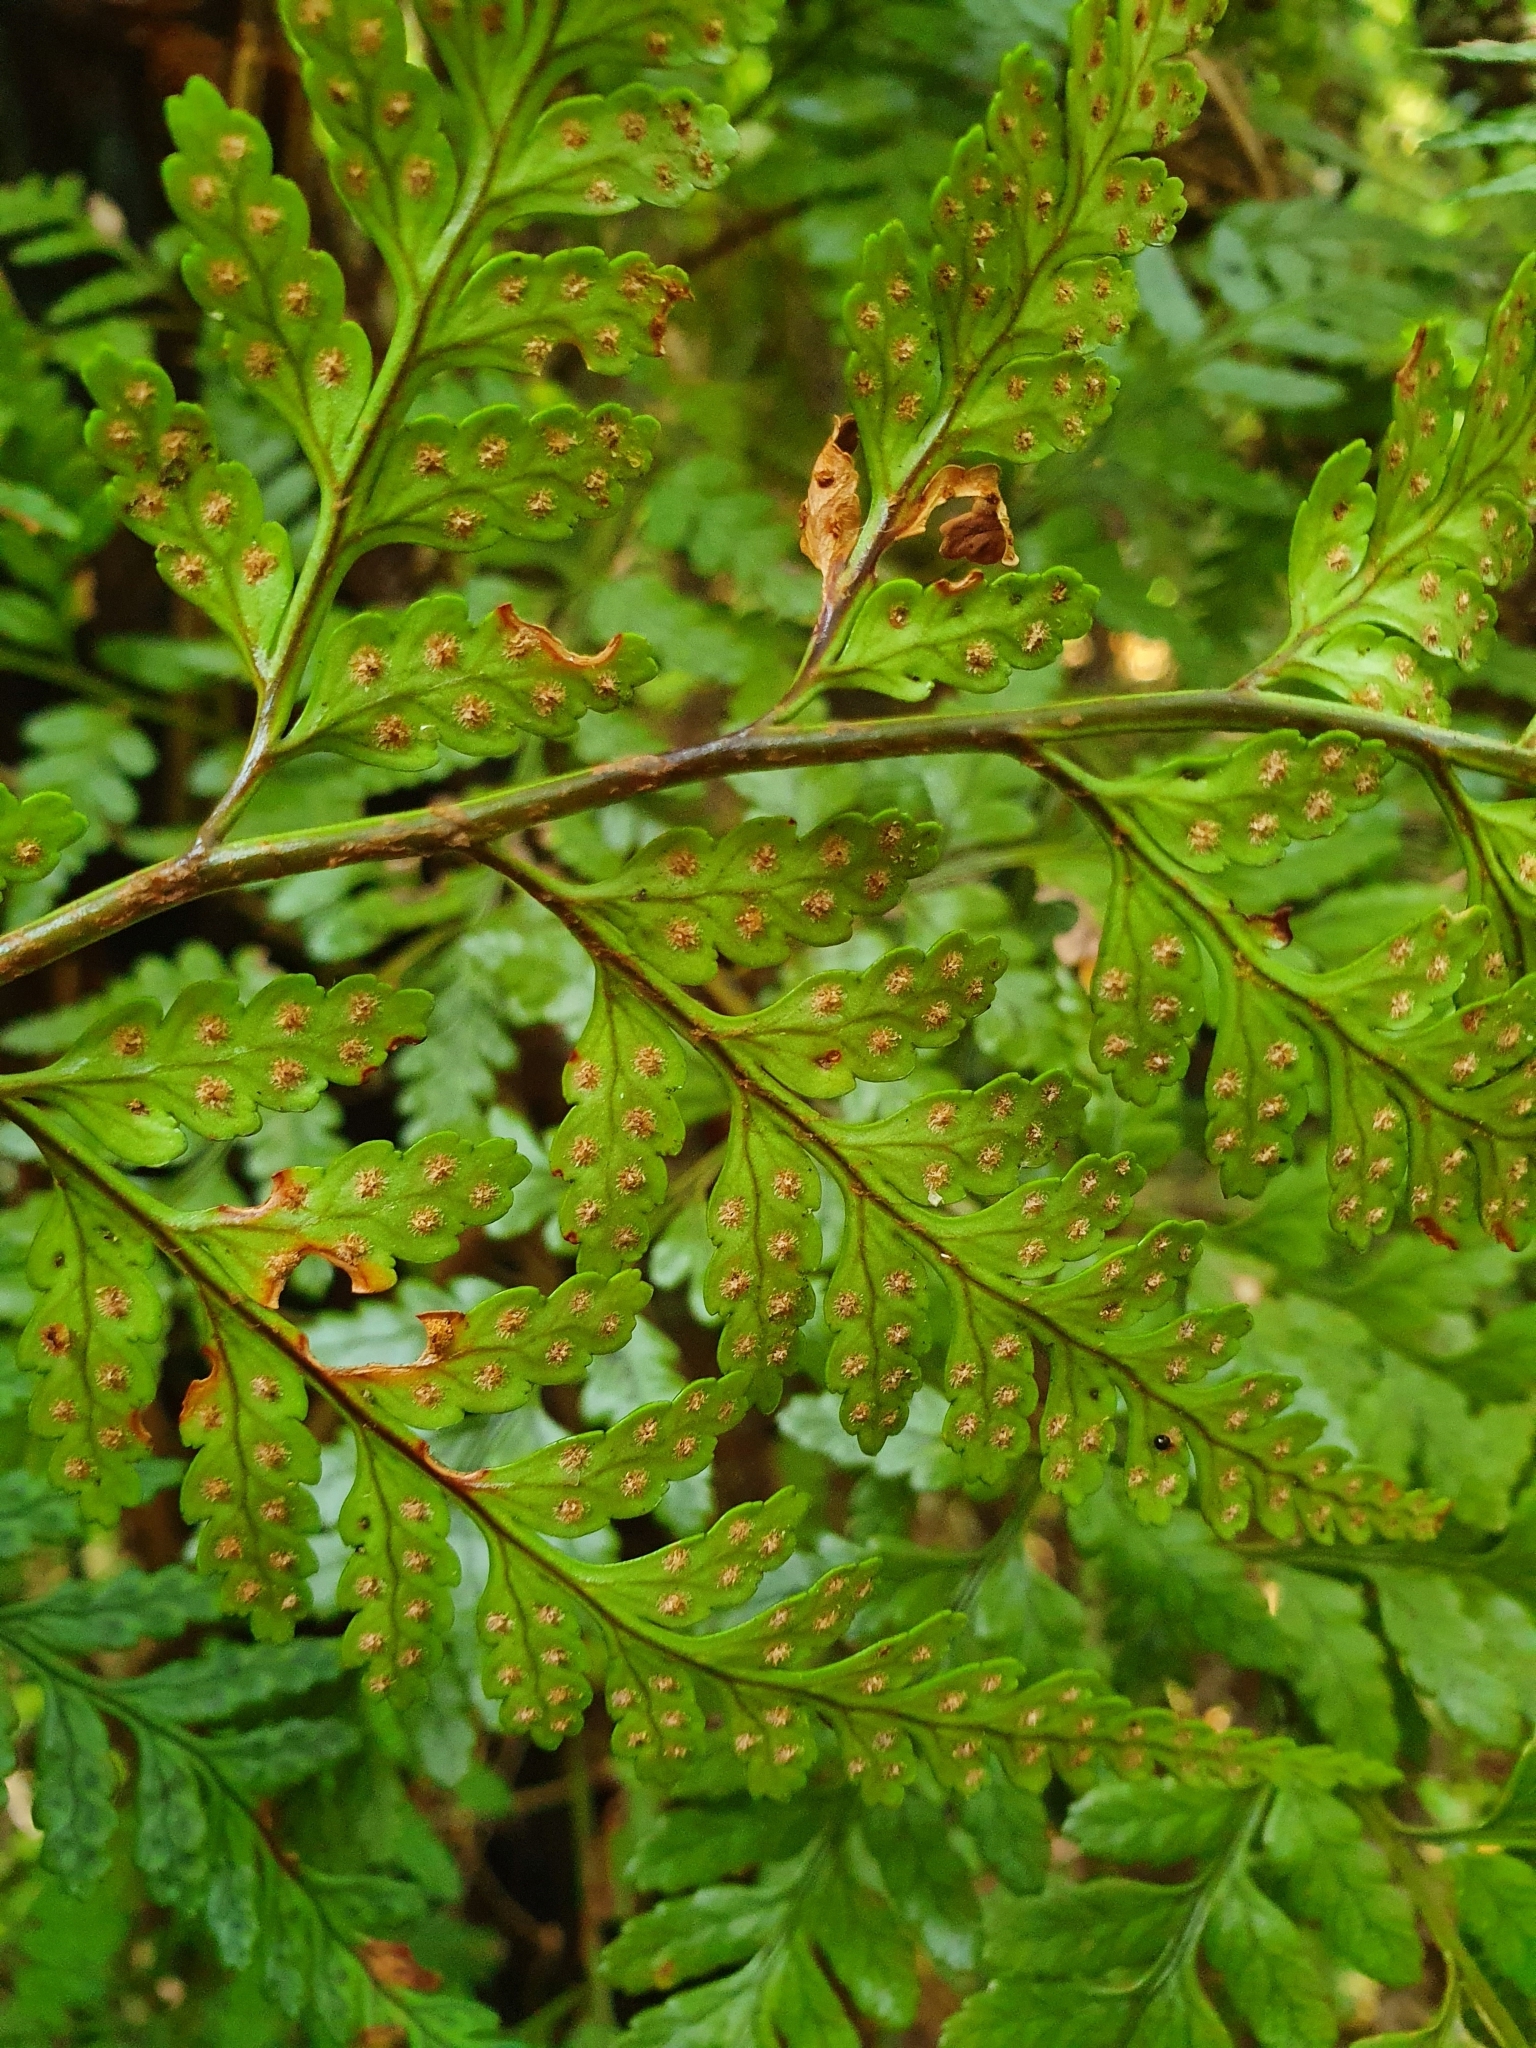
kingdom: Plantae
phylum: Tracheophyta
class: Polypodiopsida
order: Polypodiales
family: Dryopteridaceae
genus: Rumohra
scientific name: Rumohra adiantiformis
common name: Leather fern
